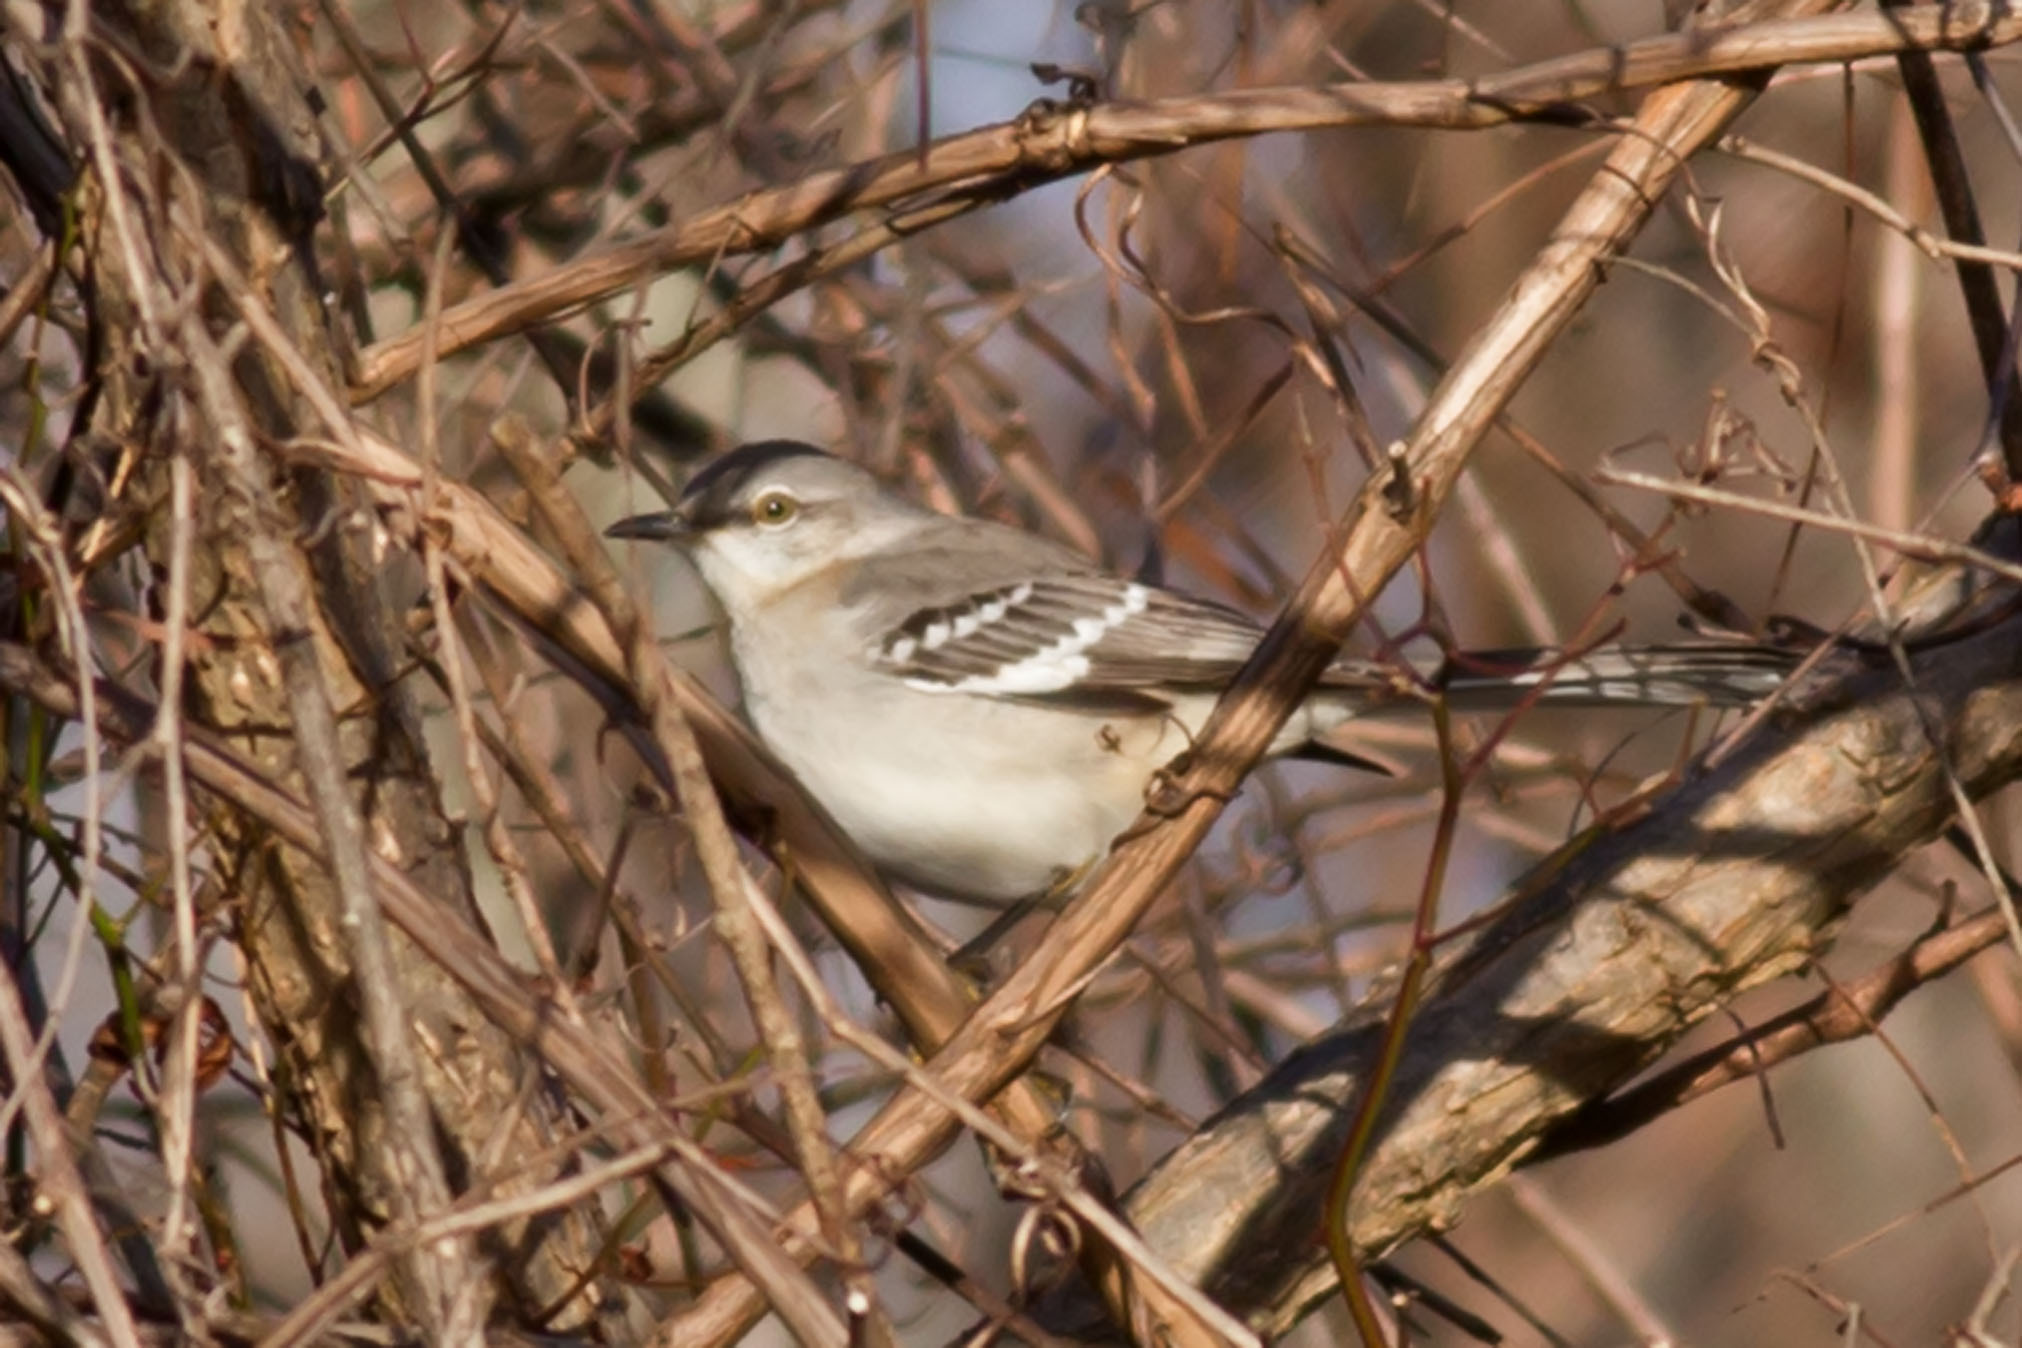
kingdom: Animalia
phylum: Chordata
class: Aves
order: Passeriformes
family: Mimidae
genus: Mimus
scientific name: Mimus polyglottos
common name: Northern mockingbird
